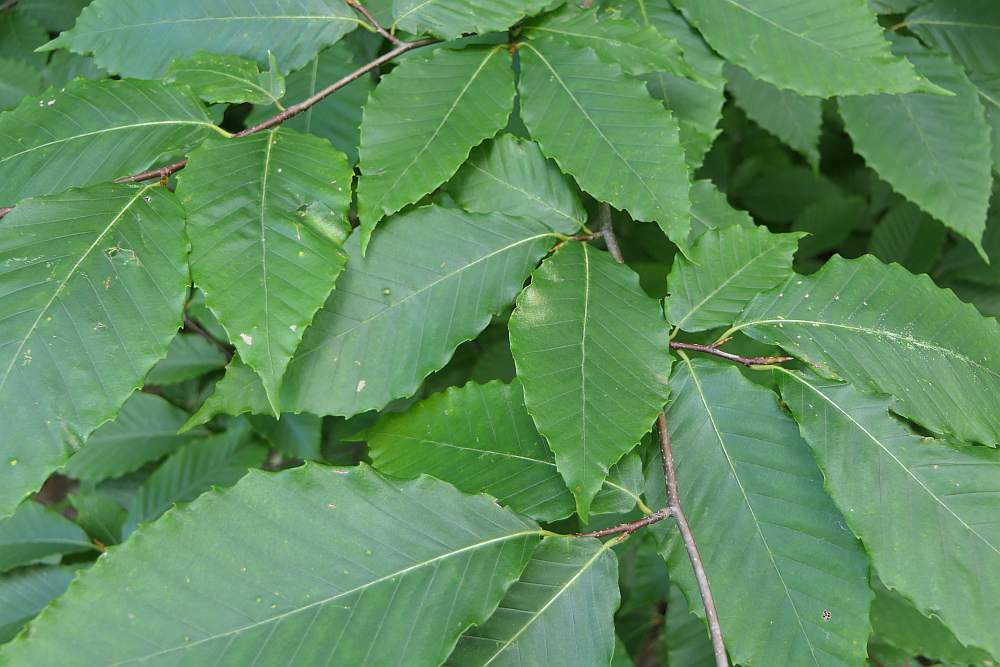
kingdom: Plantae
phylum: Tracheophyta
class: Magnoliopsida
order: Fagales
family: Fagaceae
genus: Fagus
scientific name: Fagus grandifolia
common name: American beech
